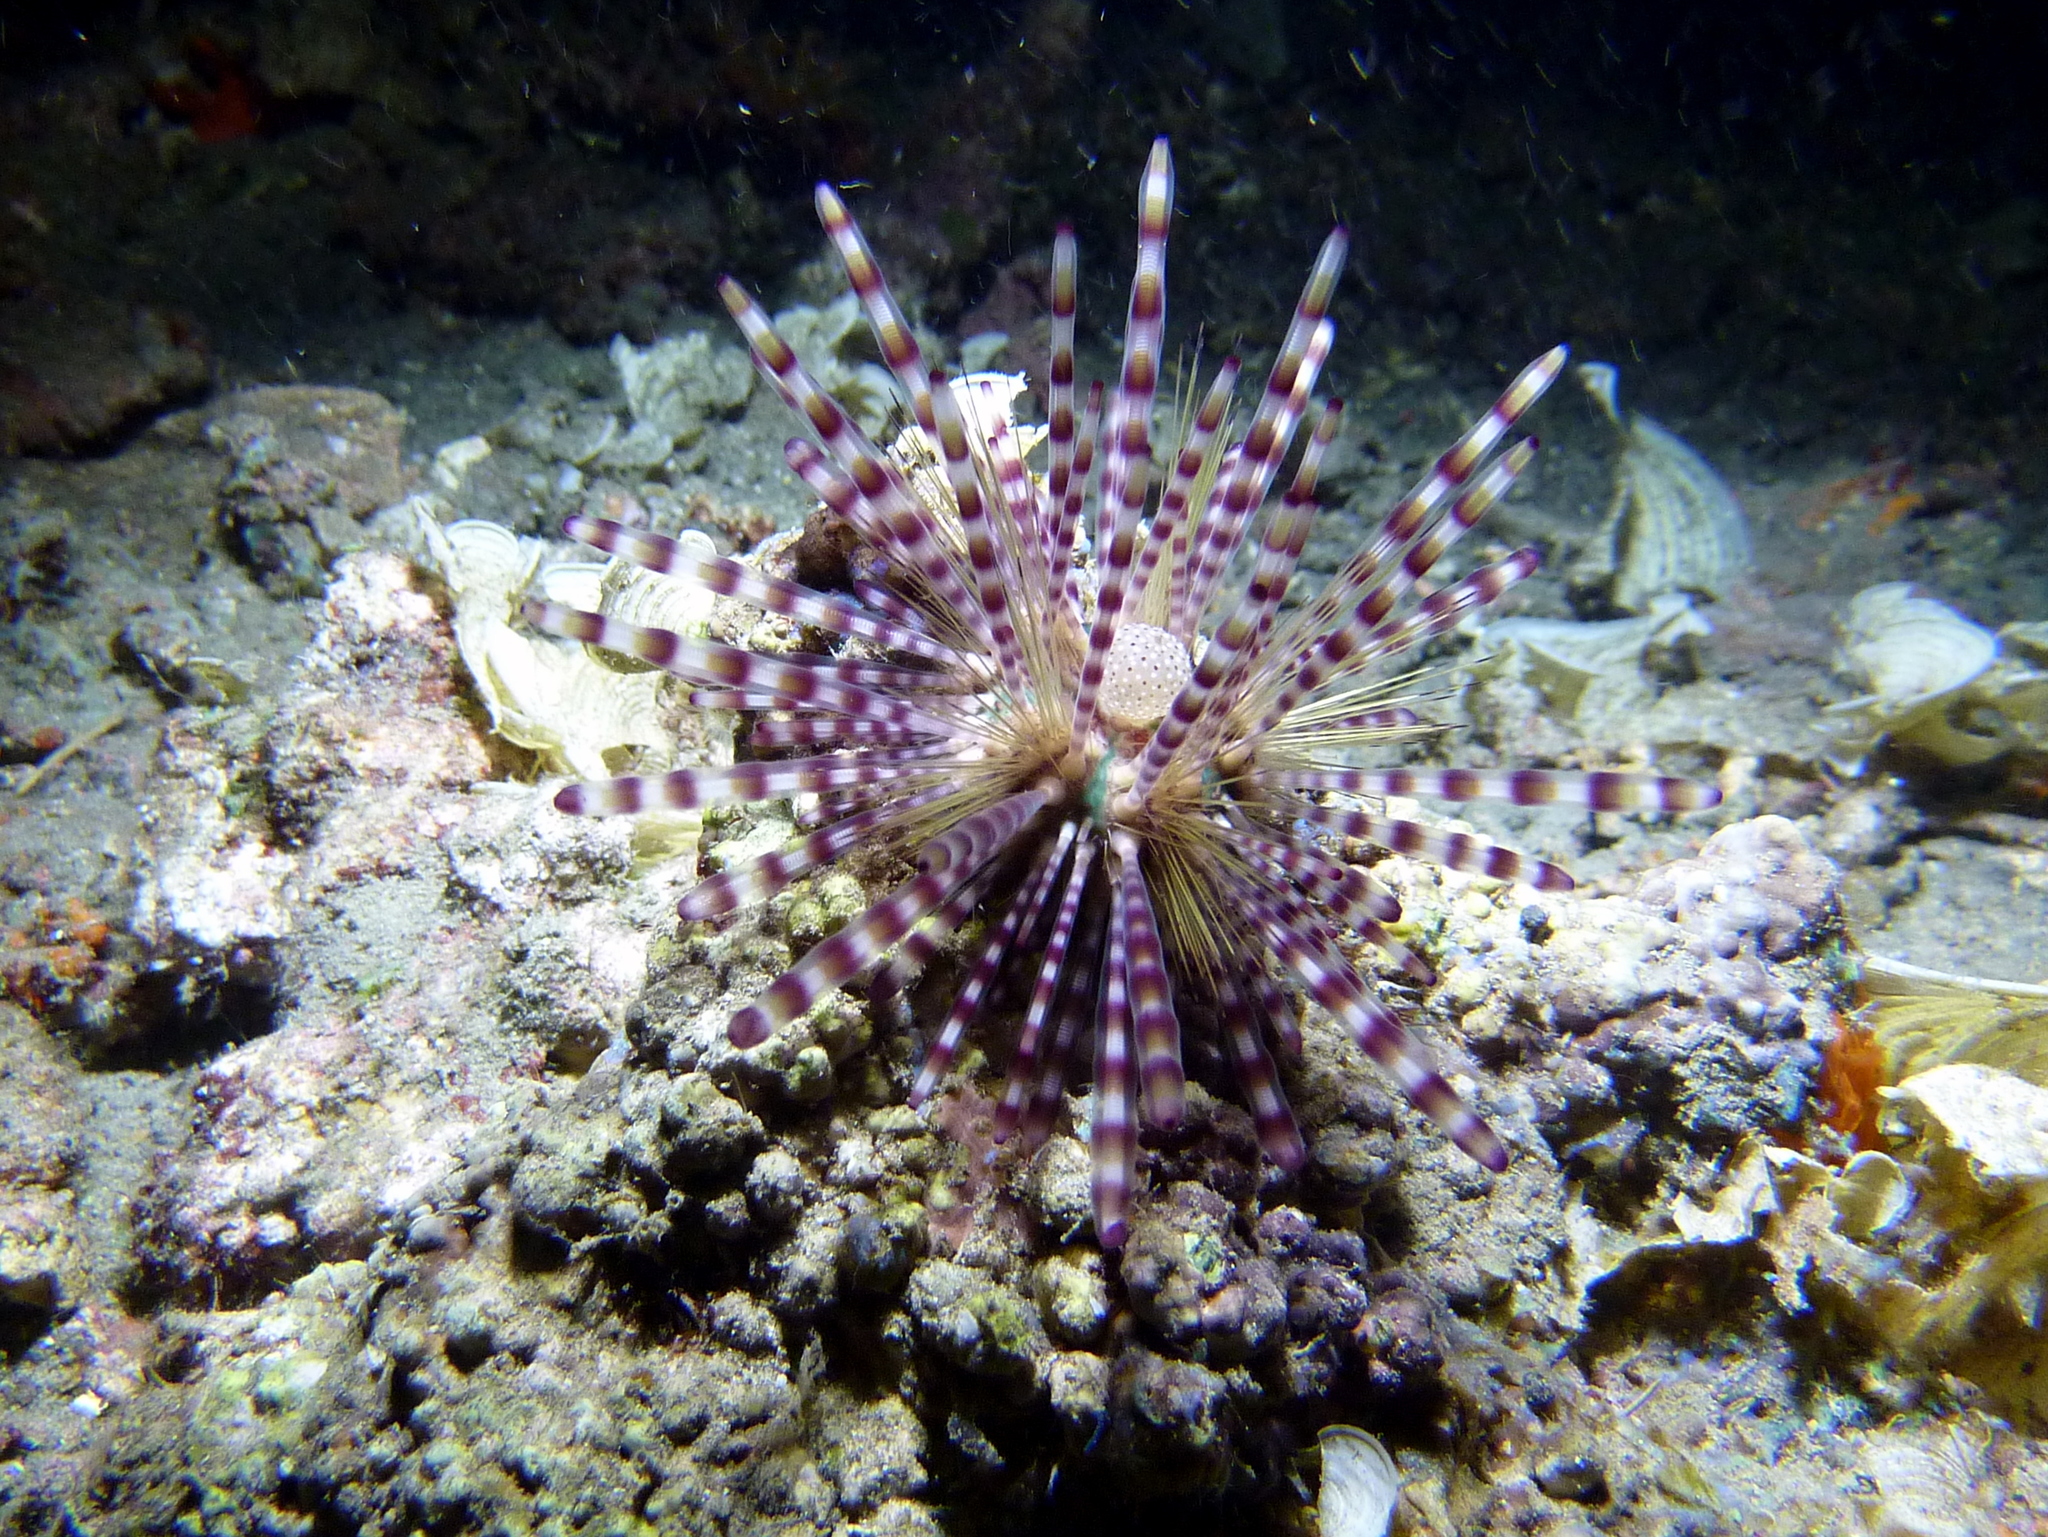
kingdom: Animalia
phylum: Echinodermata
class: Echinoidea
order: Diadematoida
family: Diadematidae
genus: Echinothrix
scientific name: Echinothrix calamaris
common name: Banded sea urchin
